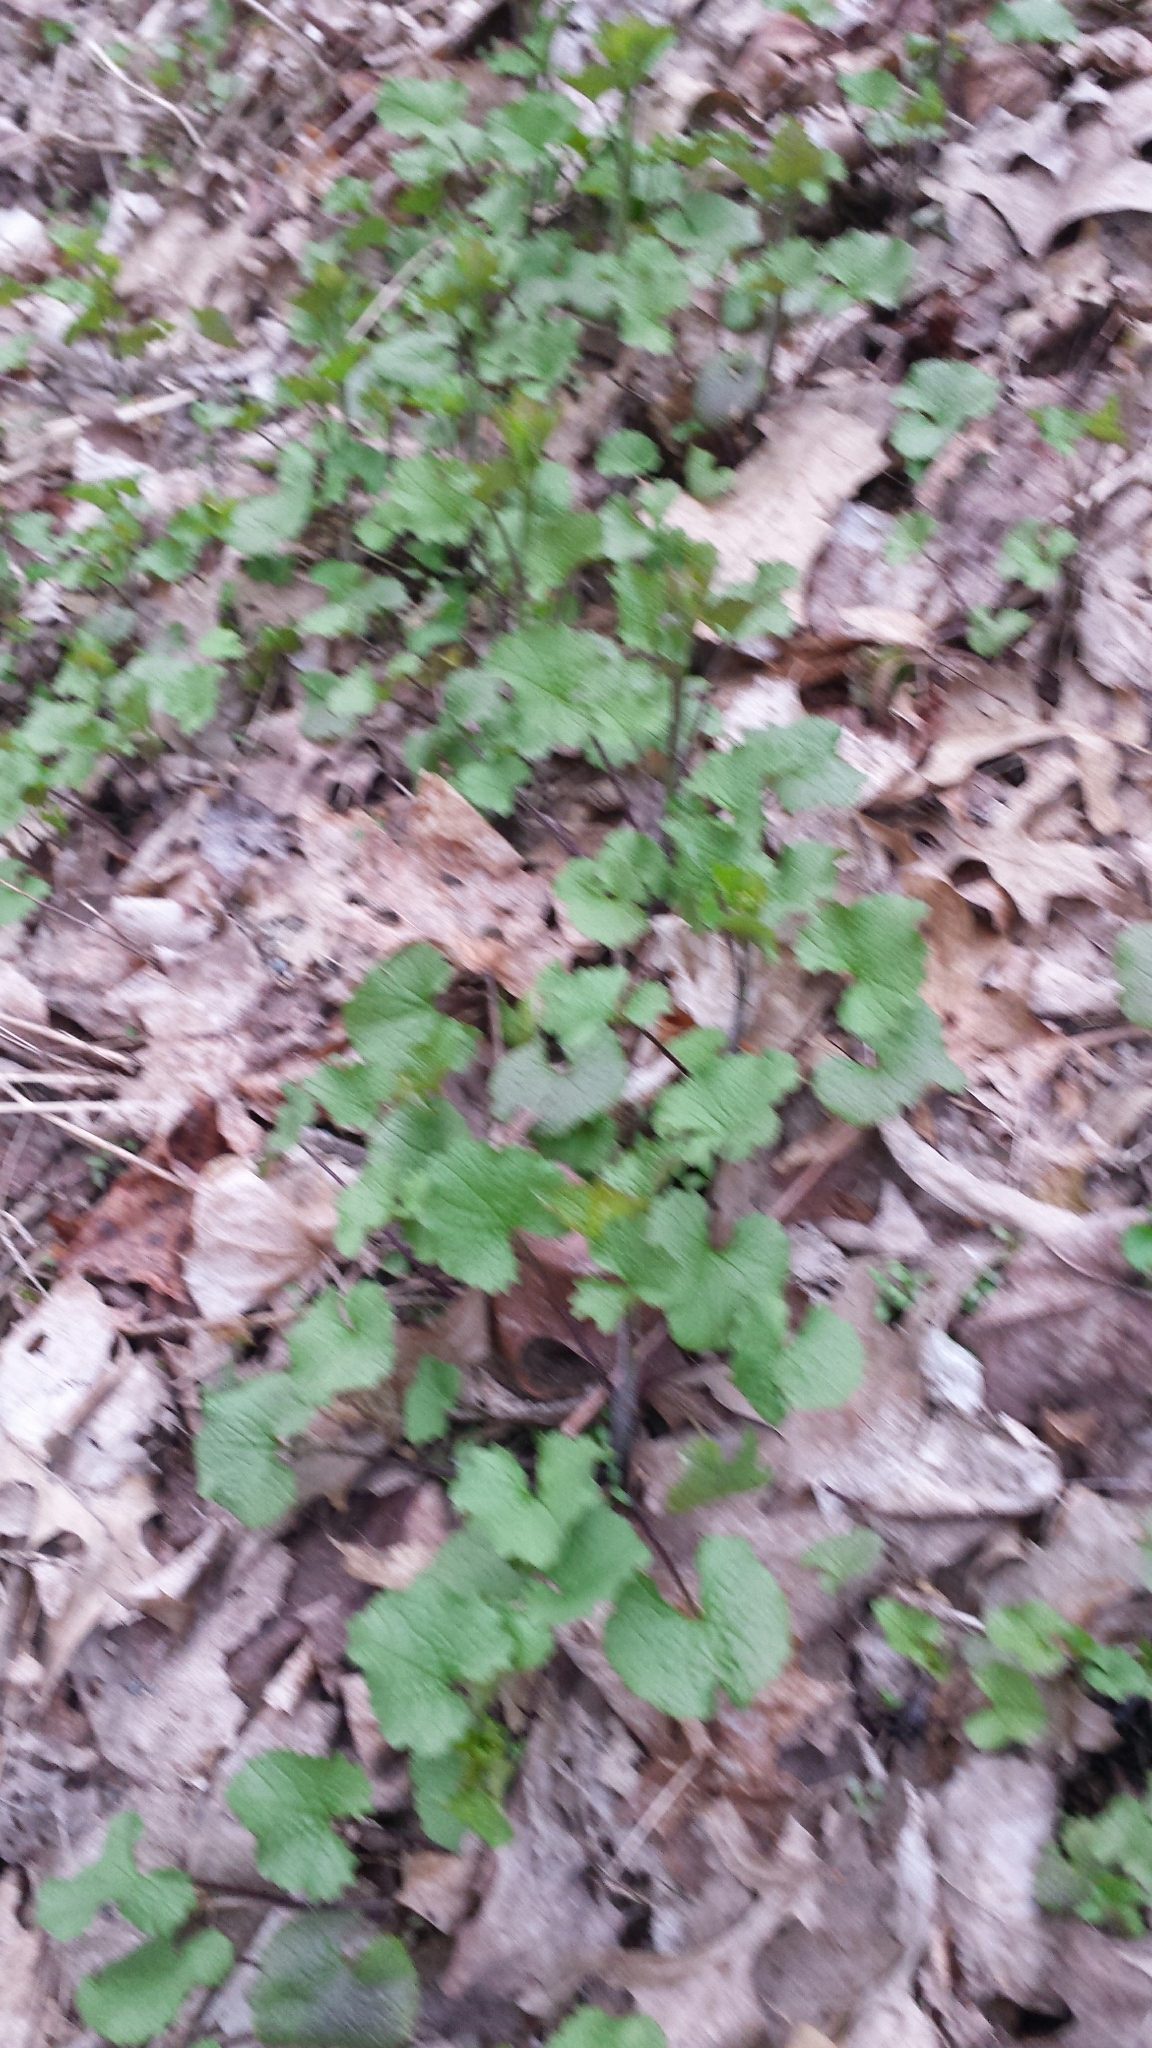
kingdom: Plantae
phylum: Tracheophyta
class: Magnoliopsida
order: Brassicales
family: Brassicaceae
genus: Alliaria
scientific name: Alliaria petiolata
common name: Garlic mustard
